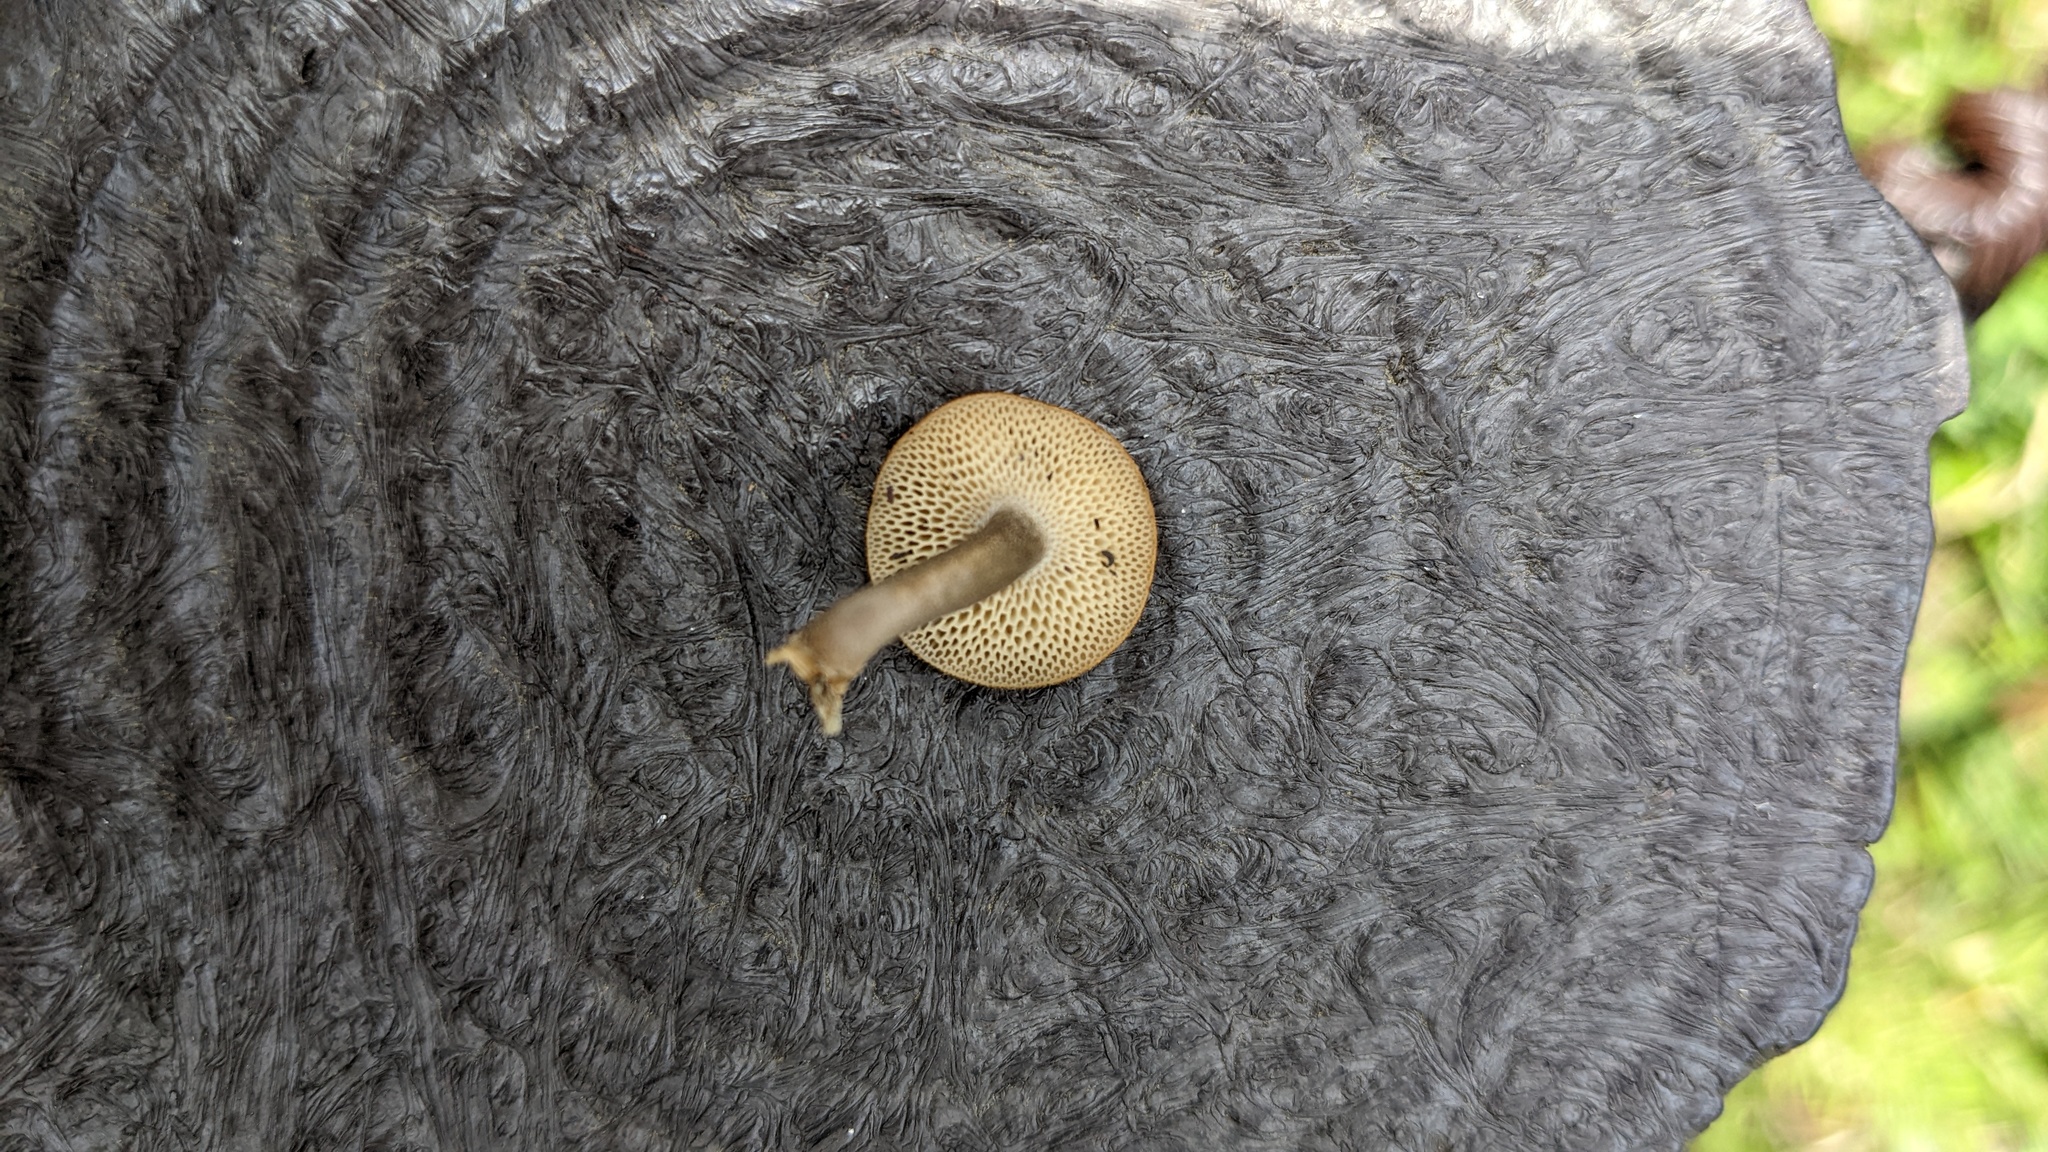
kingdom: Fungi
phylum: Basidiomycota
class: Agaricomycetes
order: Polyporales
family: Polyporaceae
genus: Lentinus
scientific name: Lentinus arcularius
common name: Spring polypore
